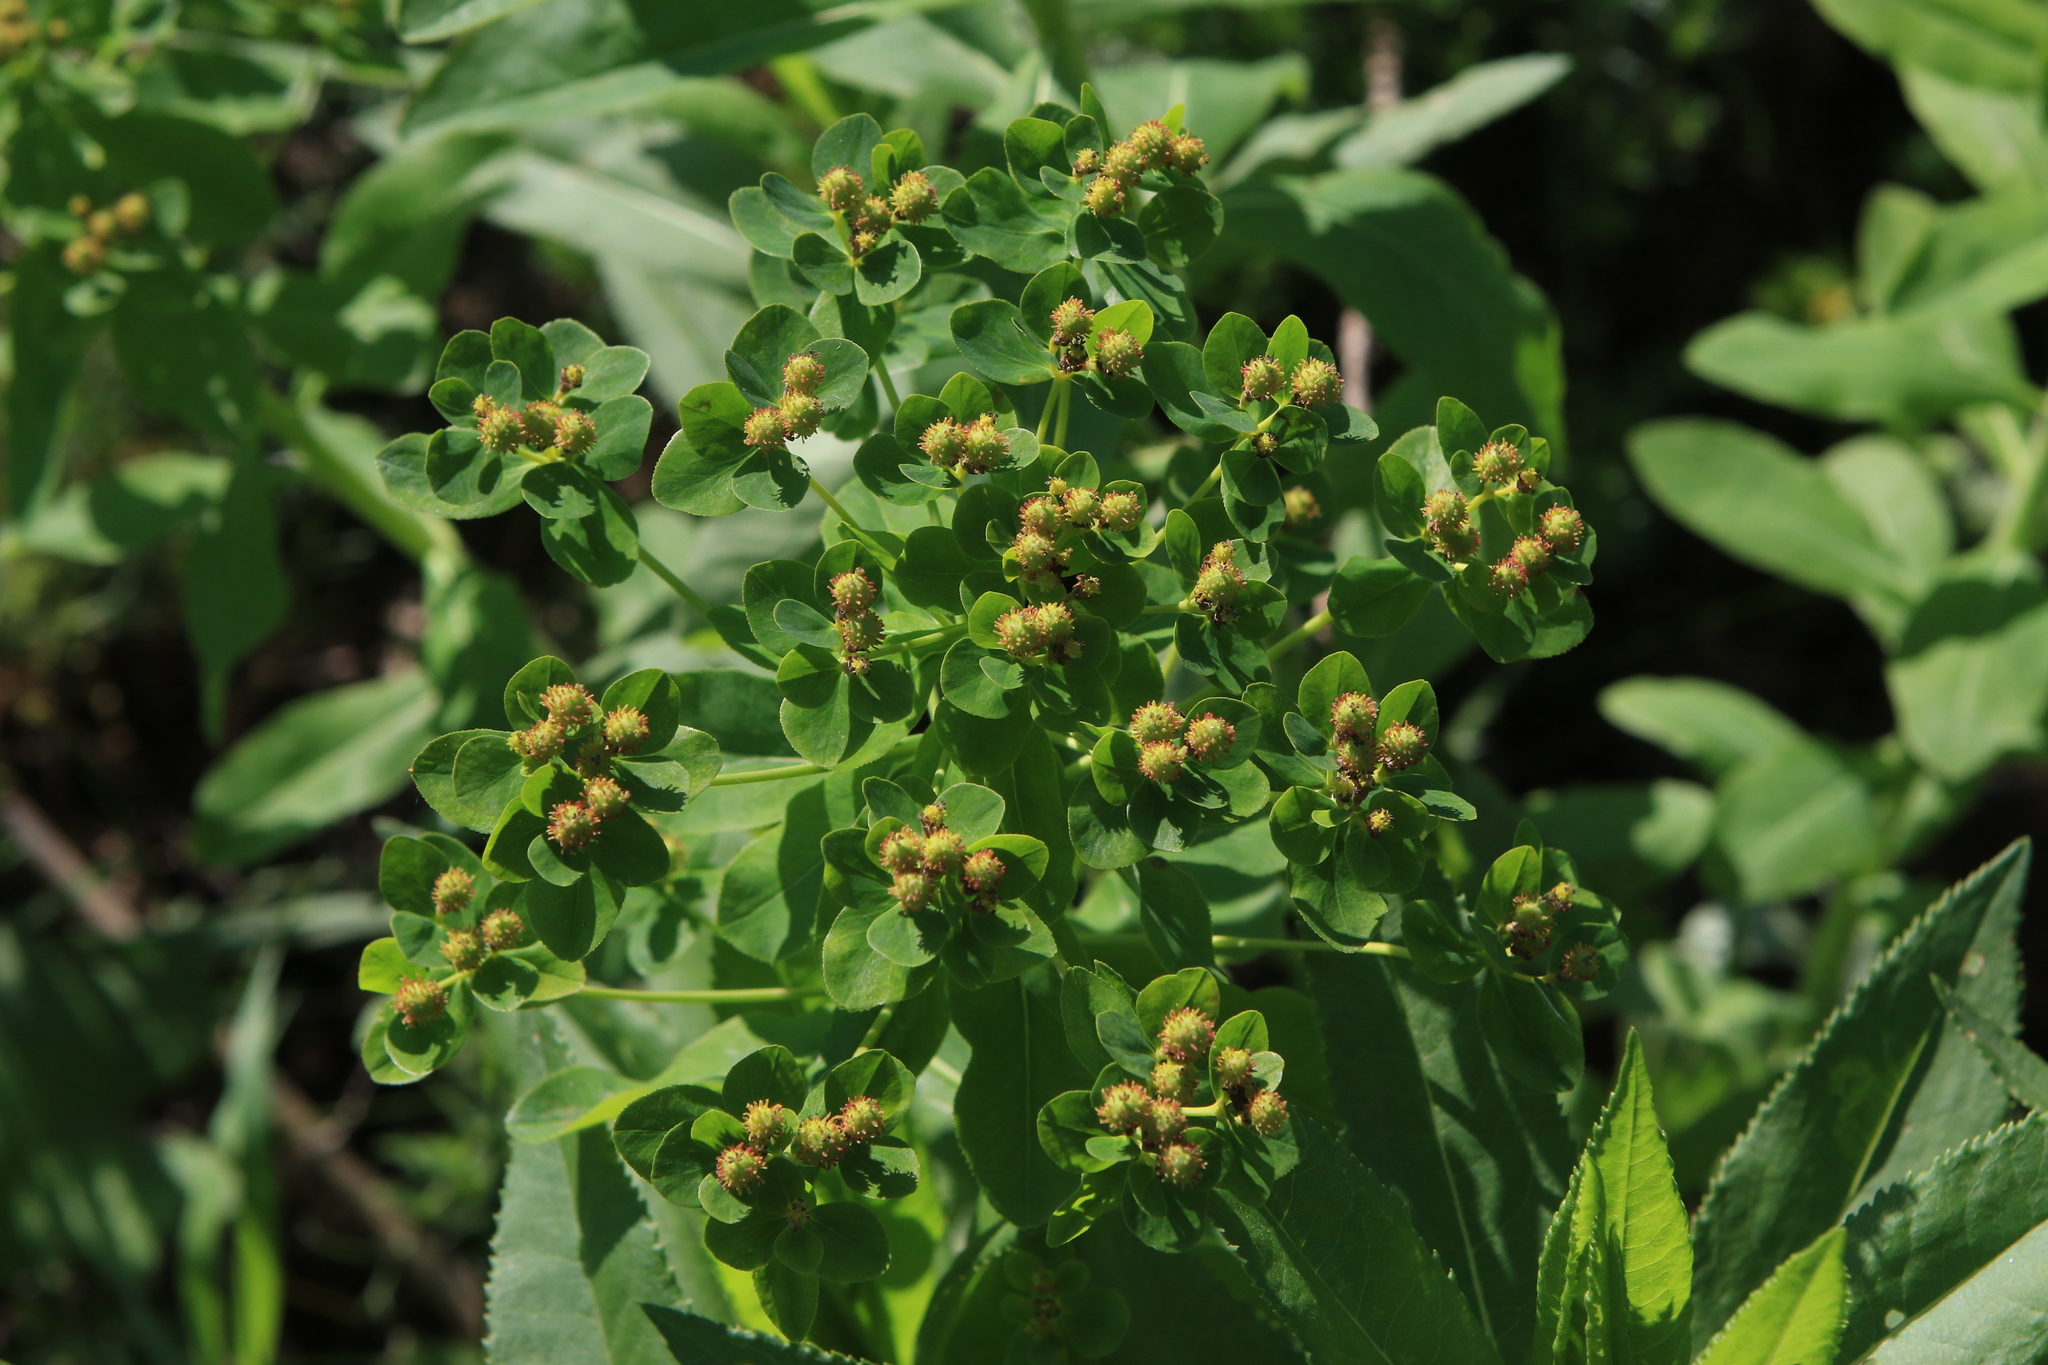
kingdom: Plantae
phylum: Tracheophyta
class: Magnoliopsida
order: Malpighiales
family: Euphorbiaceae
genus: Euphorbia
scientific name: Euphorbia pilosa
